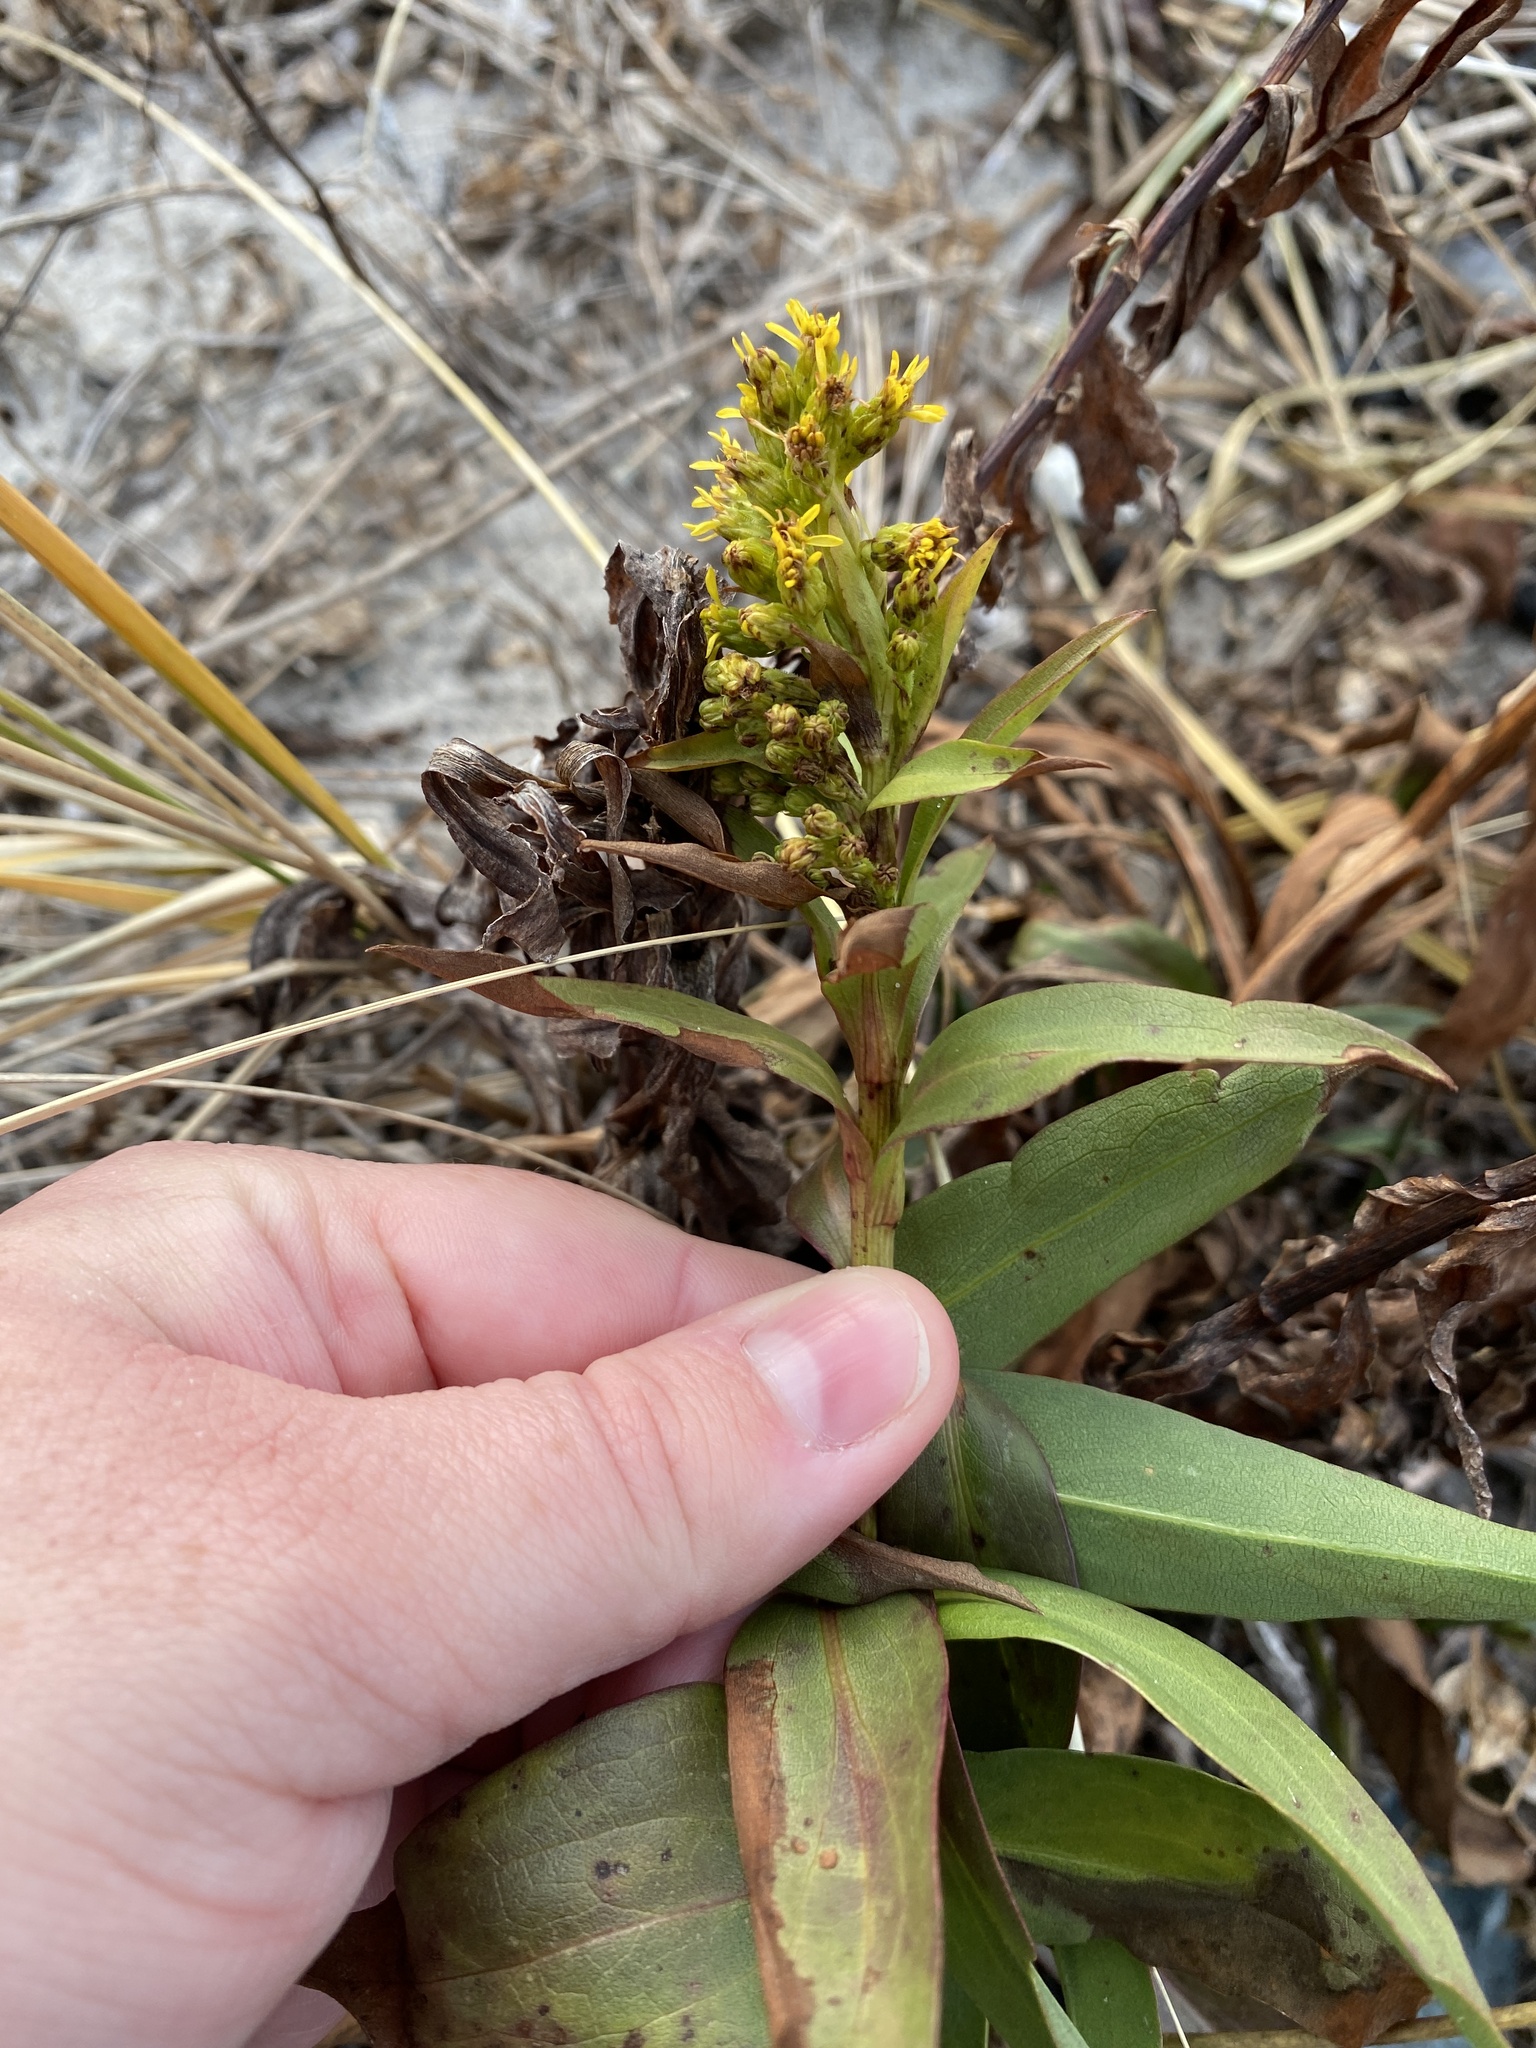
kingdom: Plantae
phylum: Tracheophyta
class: Magnoliopsida
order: Asterales
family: Asteraceae
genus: Solidago
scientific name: Solidago sempervirens
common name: Salt-marsh goldenrod
